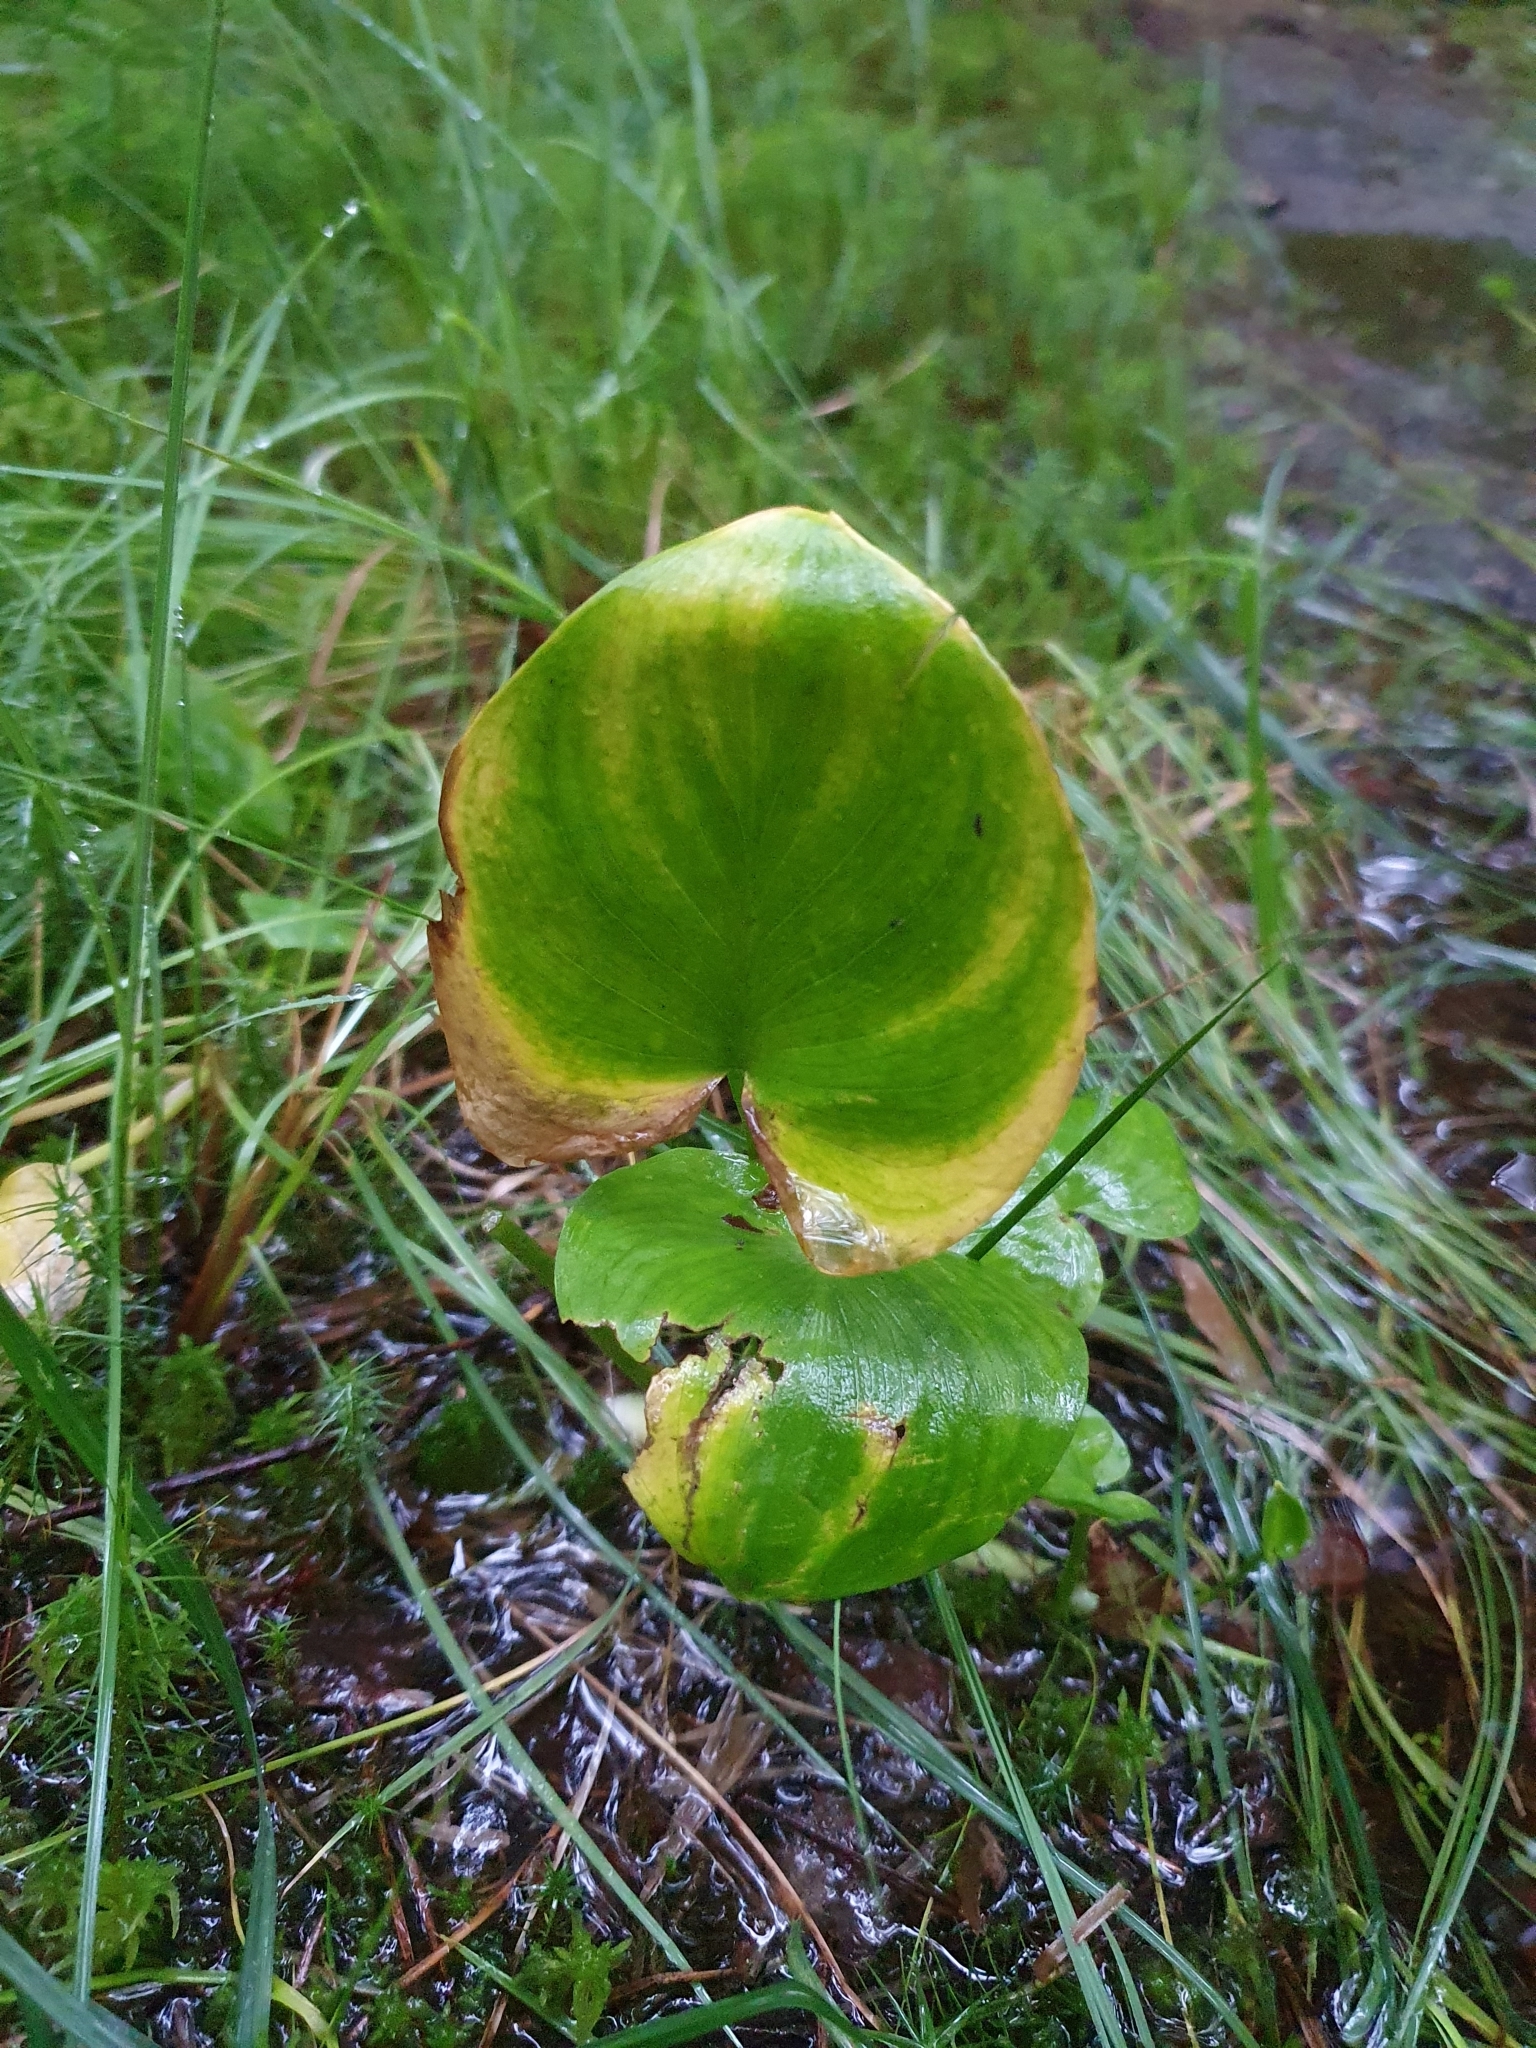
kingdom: Plantae
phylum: Tracheophyta
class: Liliopsida
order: Alismatales
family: Araceae
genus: Calla
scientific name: Calla palustris
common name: Bog arum
